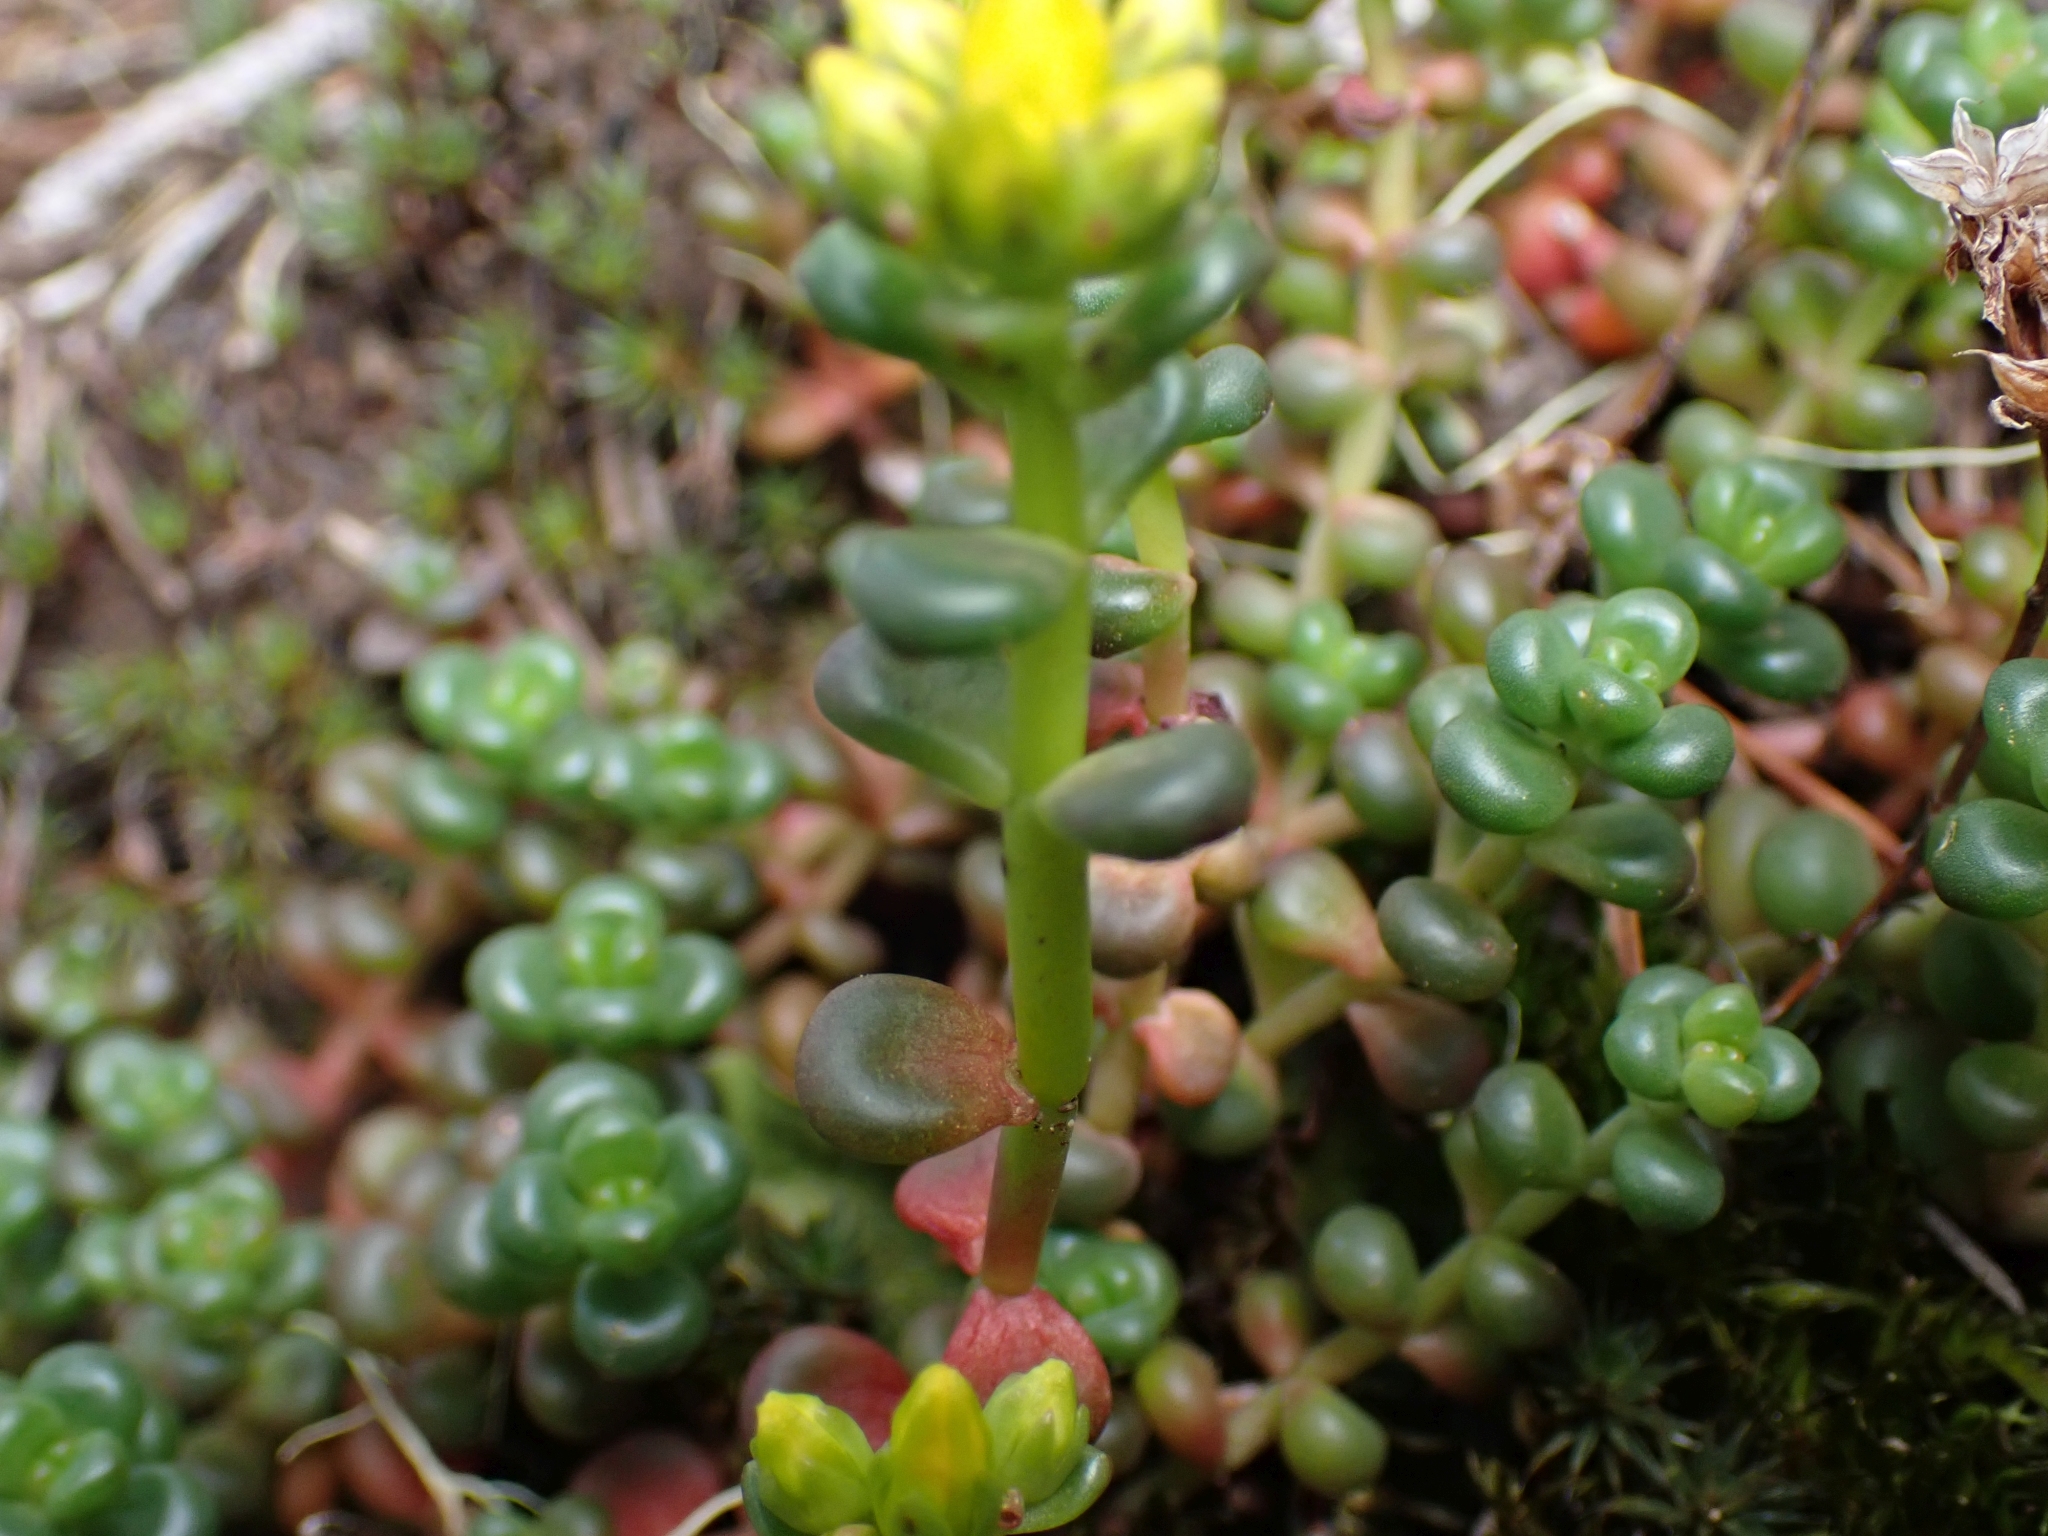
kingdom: Plantae
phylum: Tracheophyta
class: Magnoliopsida
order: Saxifragales
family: Crassulaceae
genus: Sedum
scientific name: Sedum divergens
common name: Cascade stonecrop
